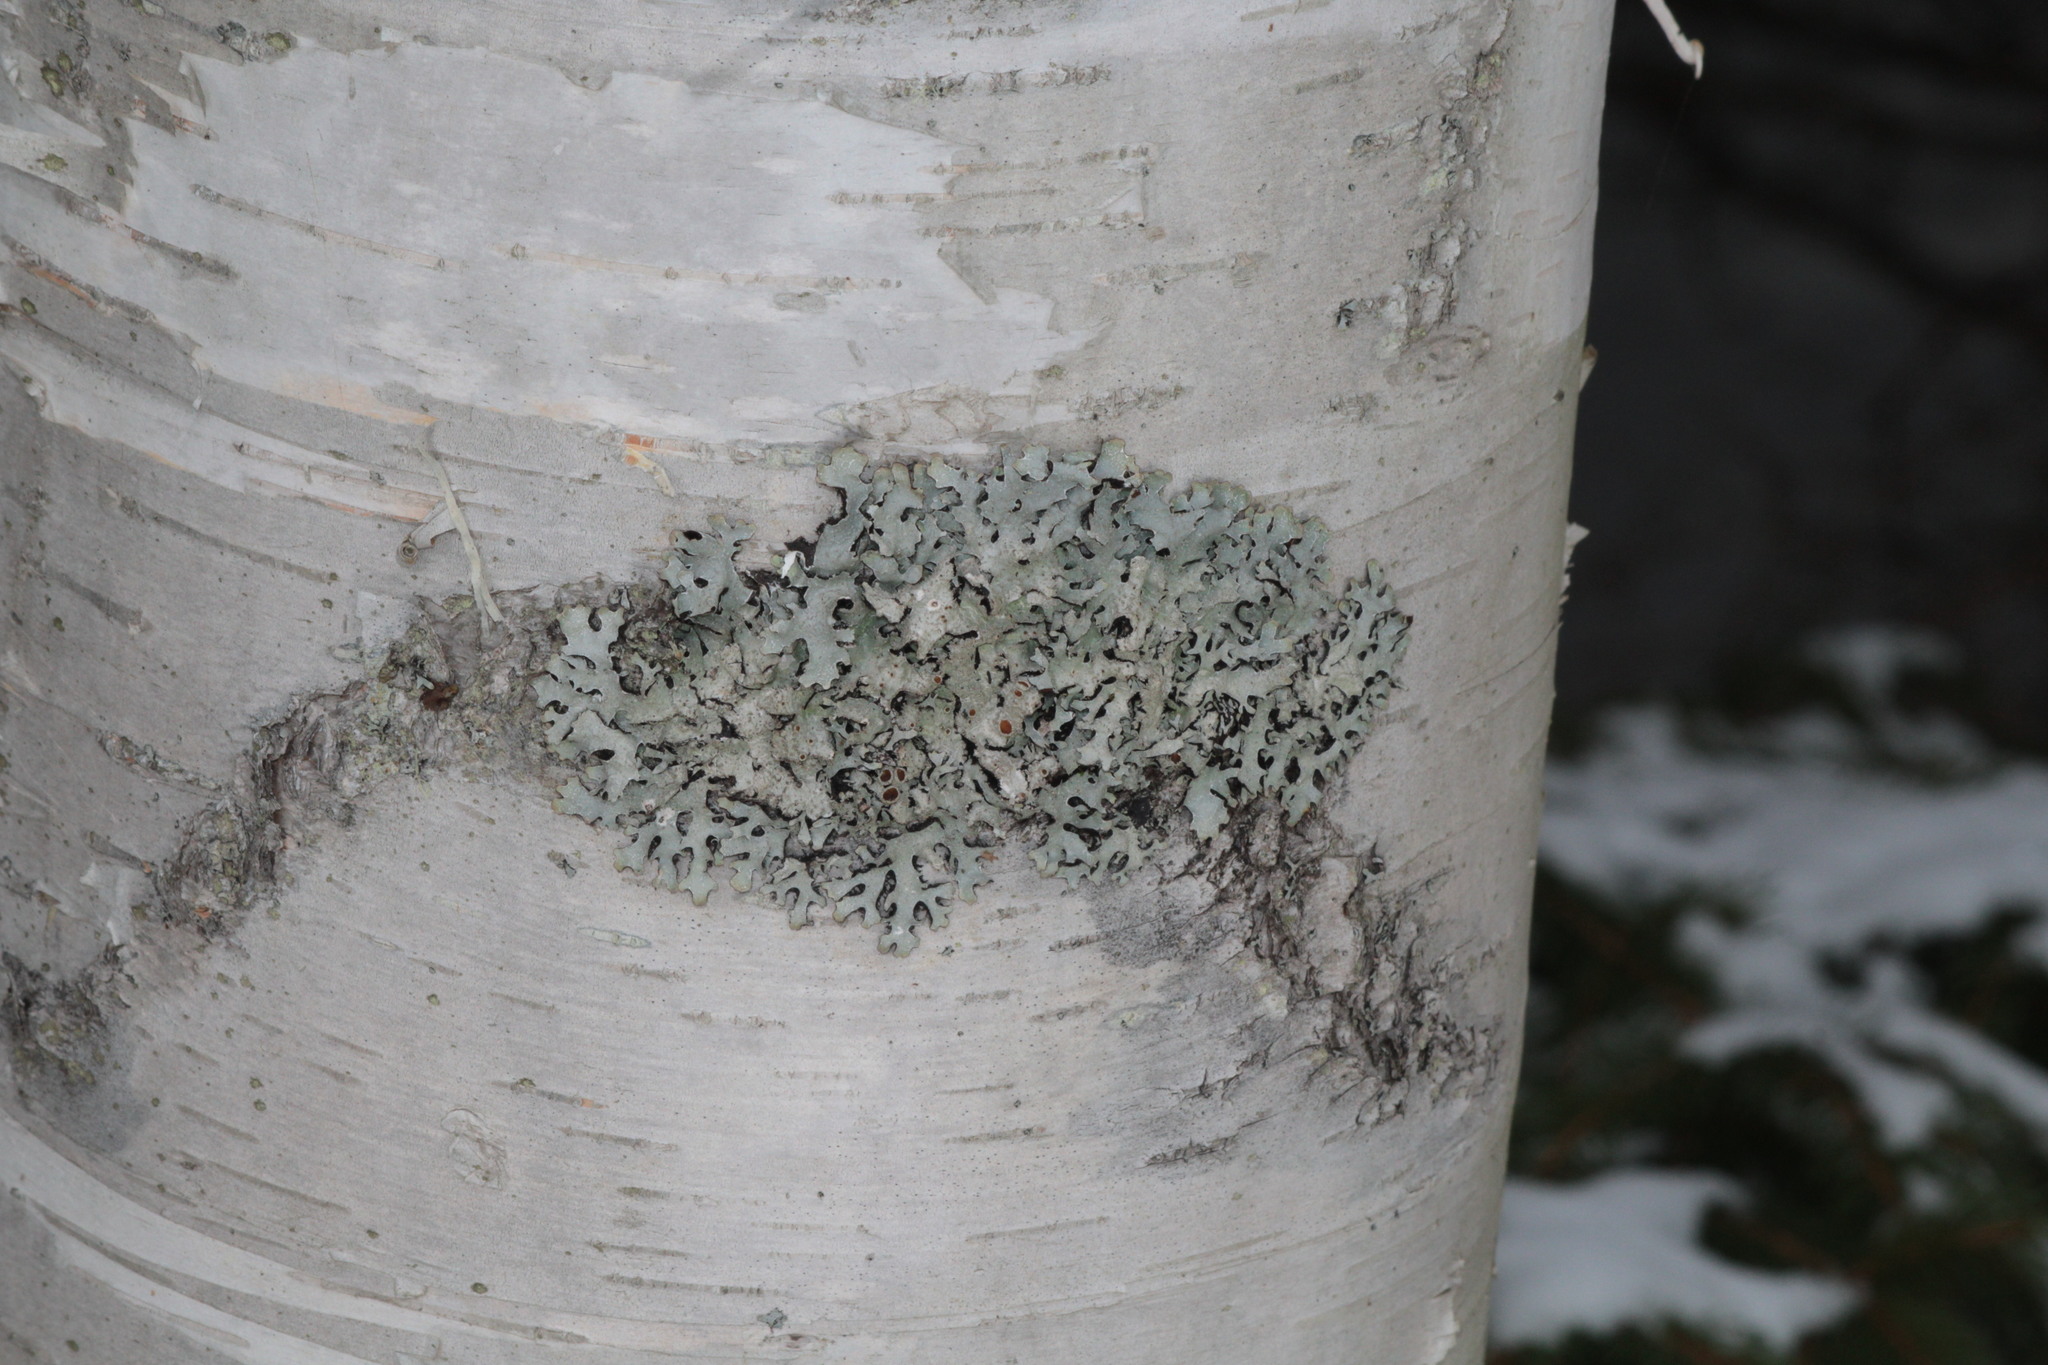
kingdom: Fungi
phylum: Ascomycota
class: Lecanoromycetes
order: Lecanorales
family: Parmeliaceae
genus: Parmelia
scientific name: Parmelia squarrosa
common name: Bottle brush shield lichen
